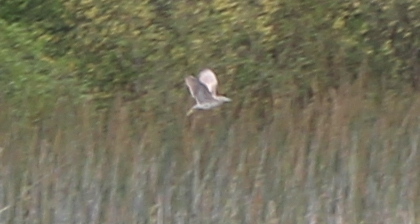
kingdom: Animalia
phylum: Chordata
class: Aves
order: Pelecaniformes
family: Ardeidae
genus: Nycticorax
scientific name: Nycticorax nycticorax
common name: Black-crowned night heron
